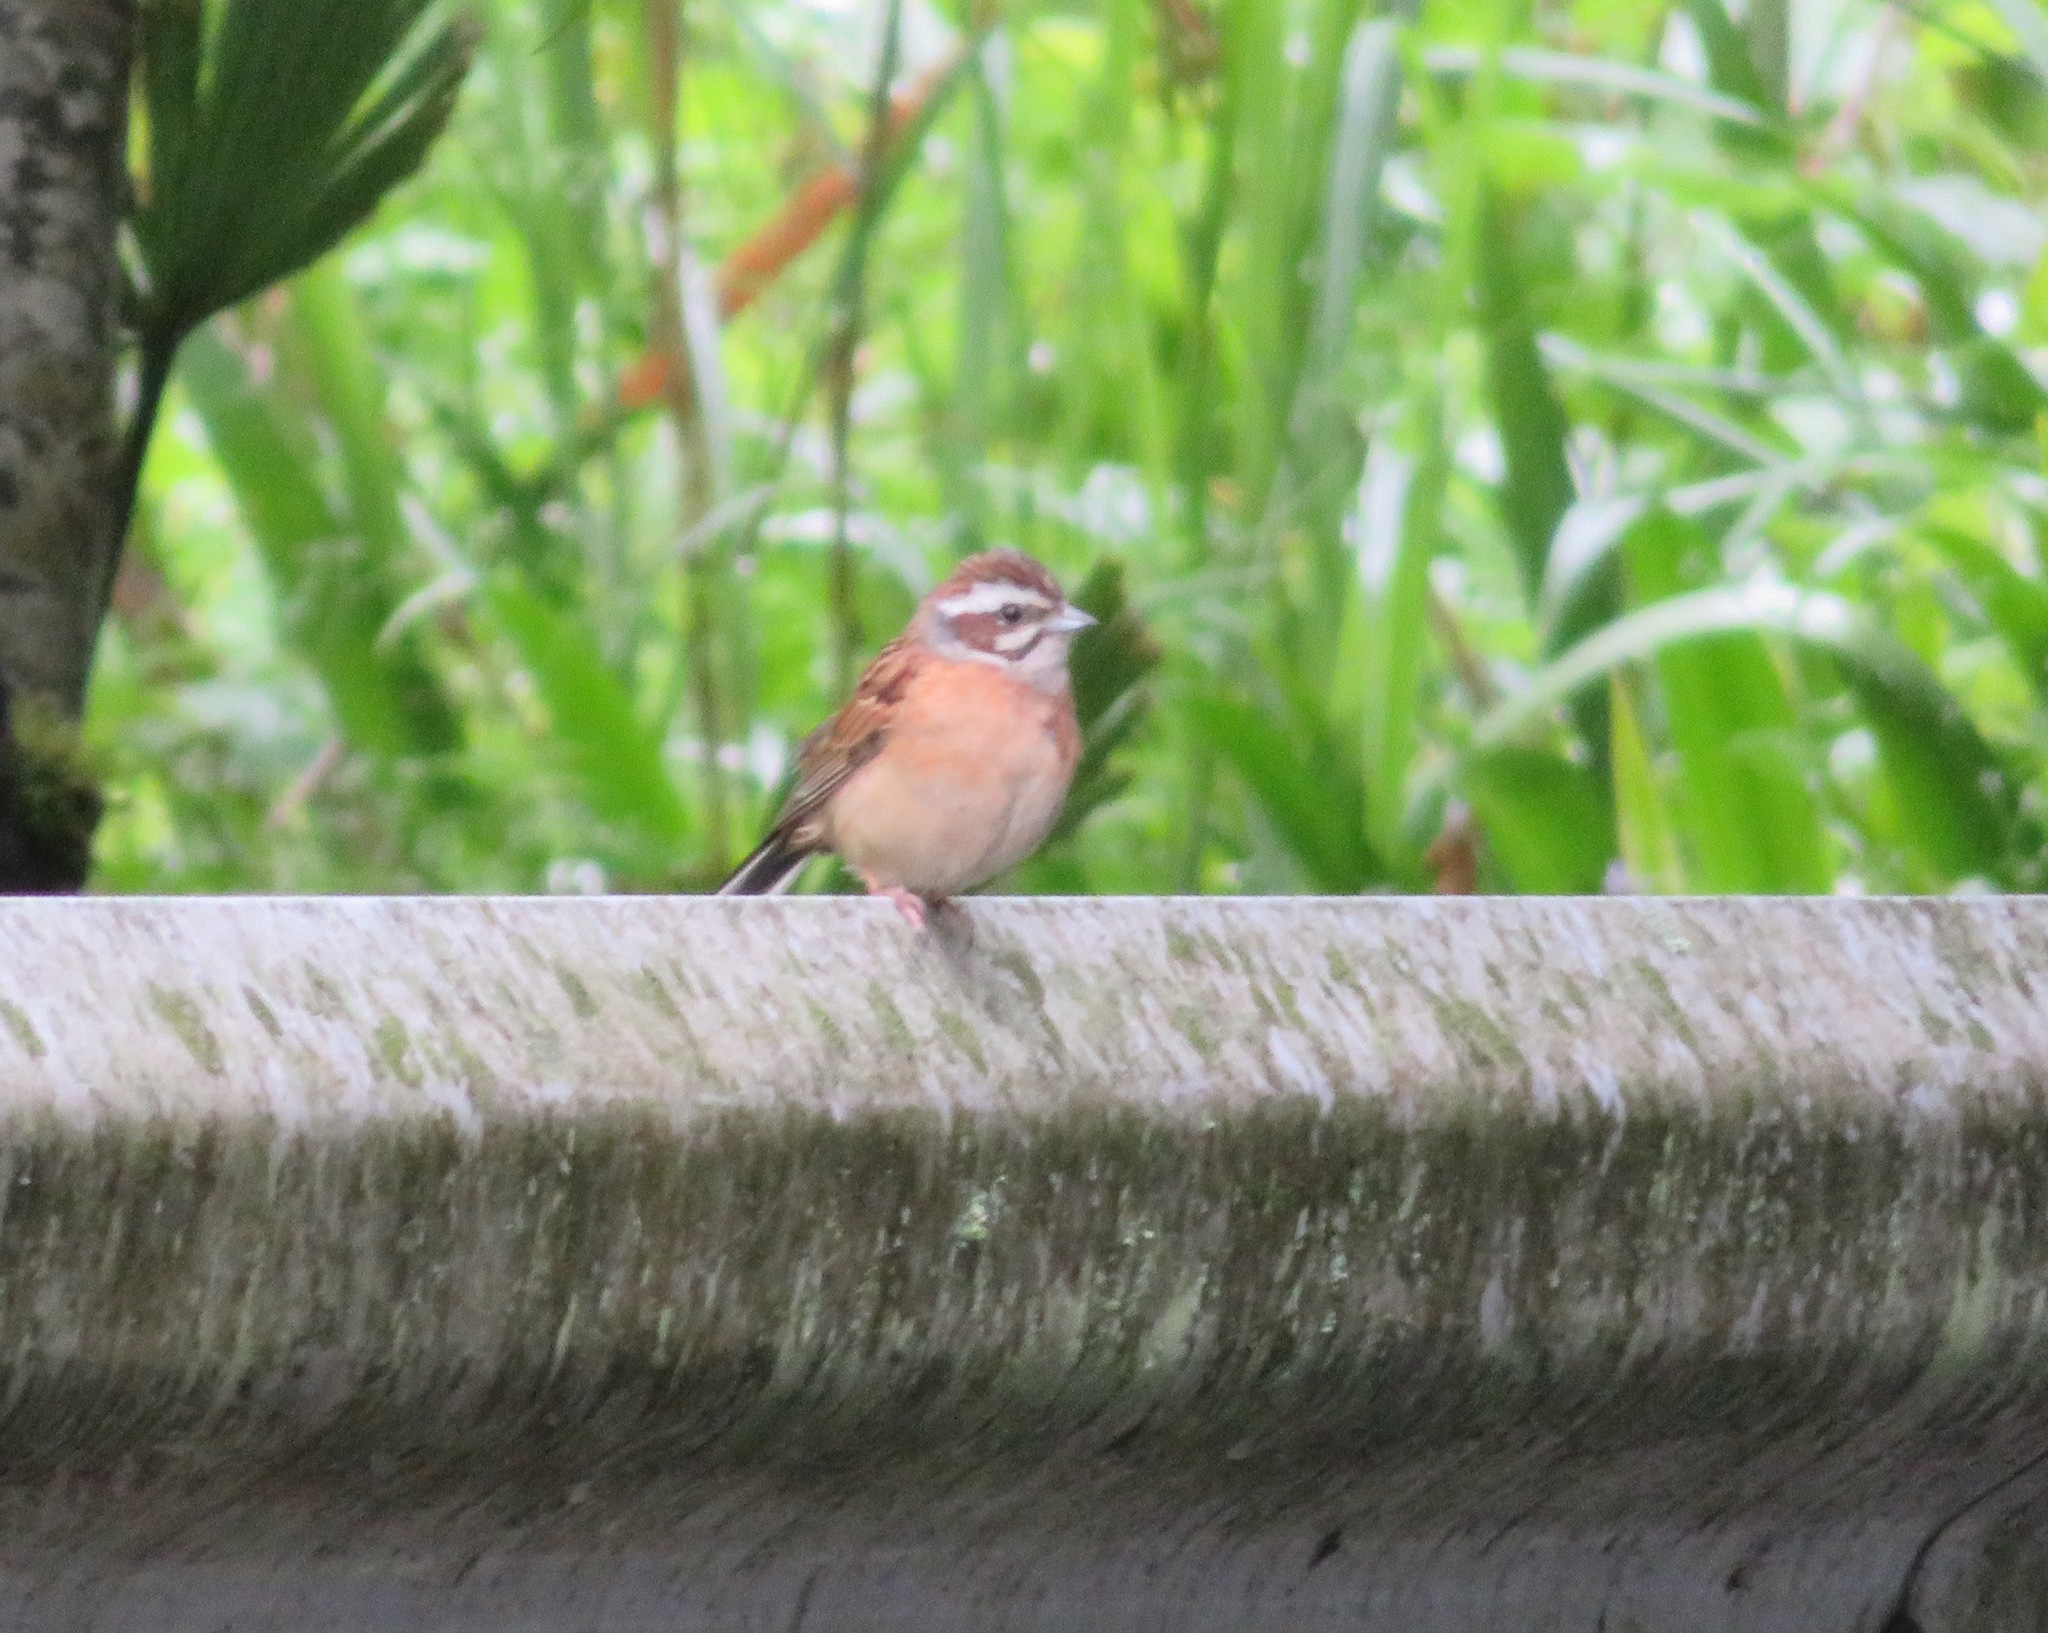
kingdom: Animalia
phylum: Chordata
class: Aves
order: Passeriformes
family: Emberizidae
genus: Emberiza
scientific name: Emberiza cioides
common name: Meadow bunting
